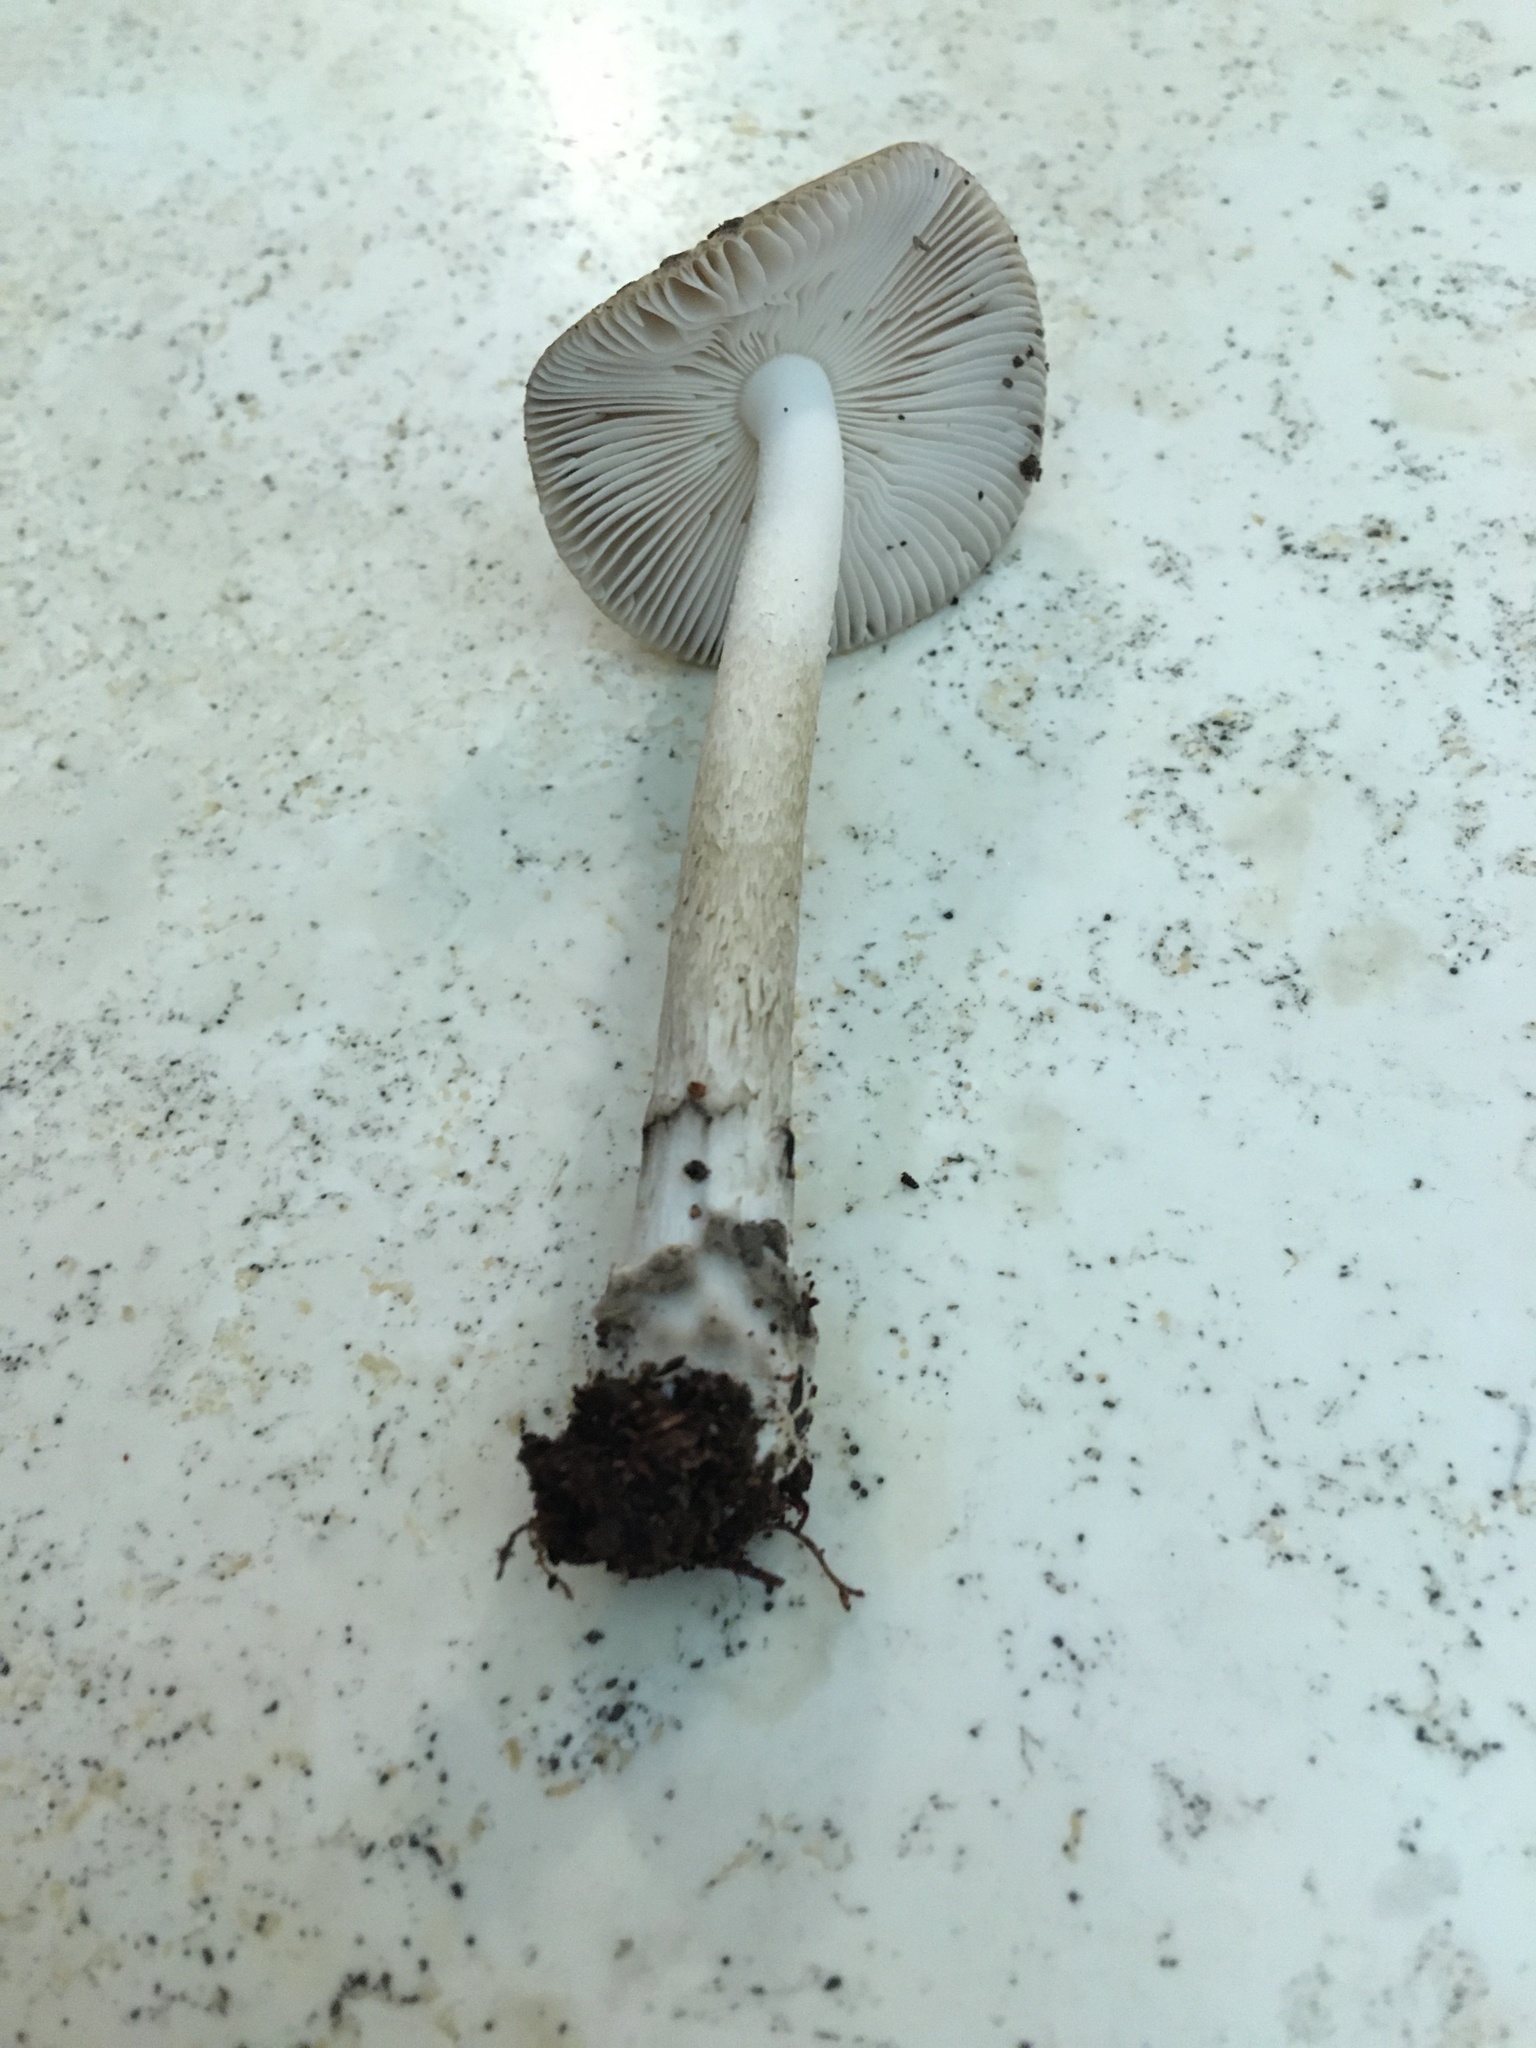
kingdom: Fungi
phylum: Basidiomycota
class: Agaricomycetes
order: Agaricales
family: Amanitaceae
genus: Amanita
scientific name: Amanita rhacopus
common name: Shaggy legged ringless amanita
